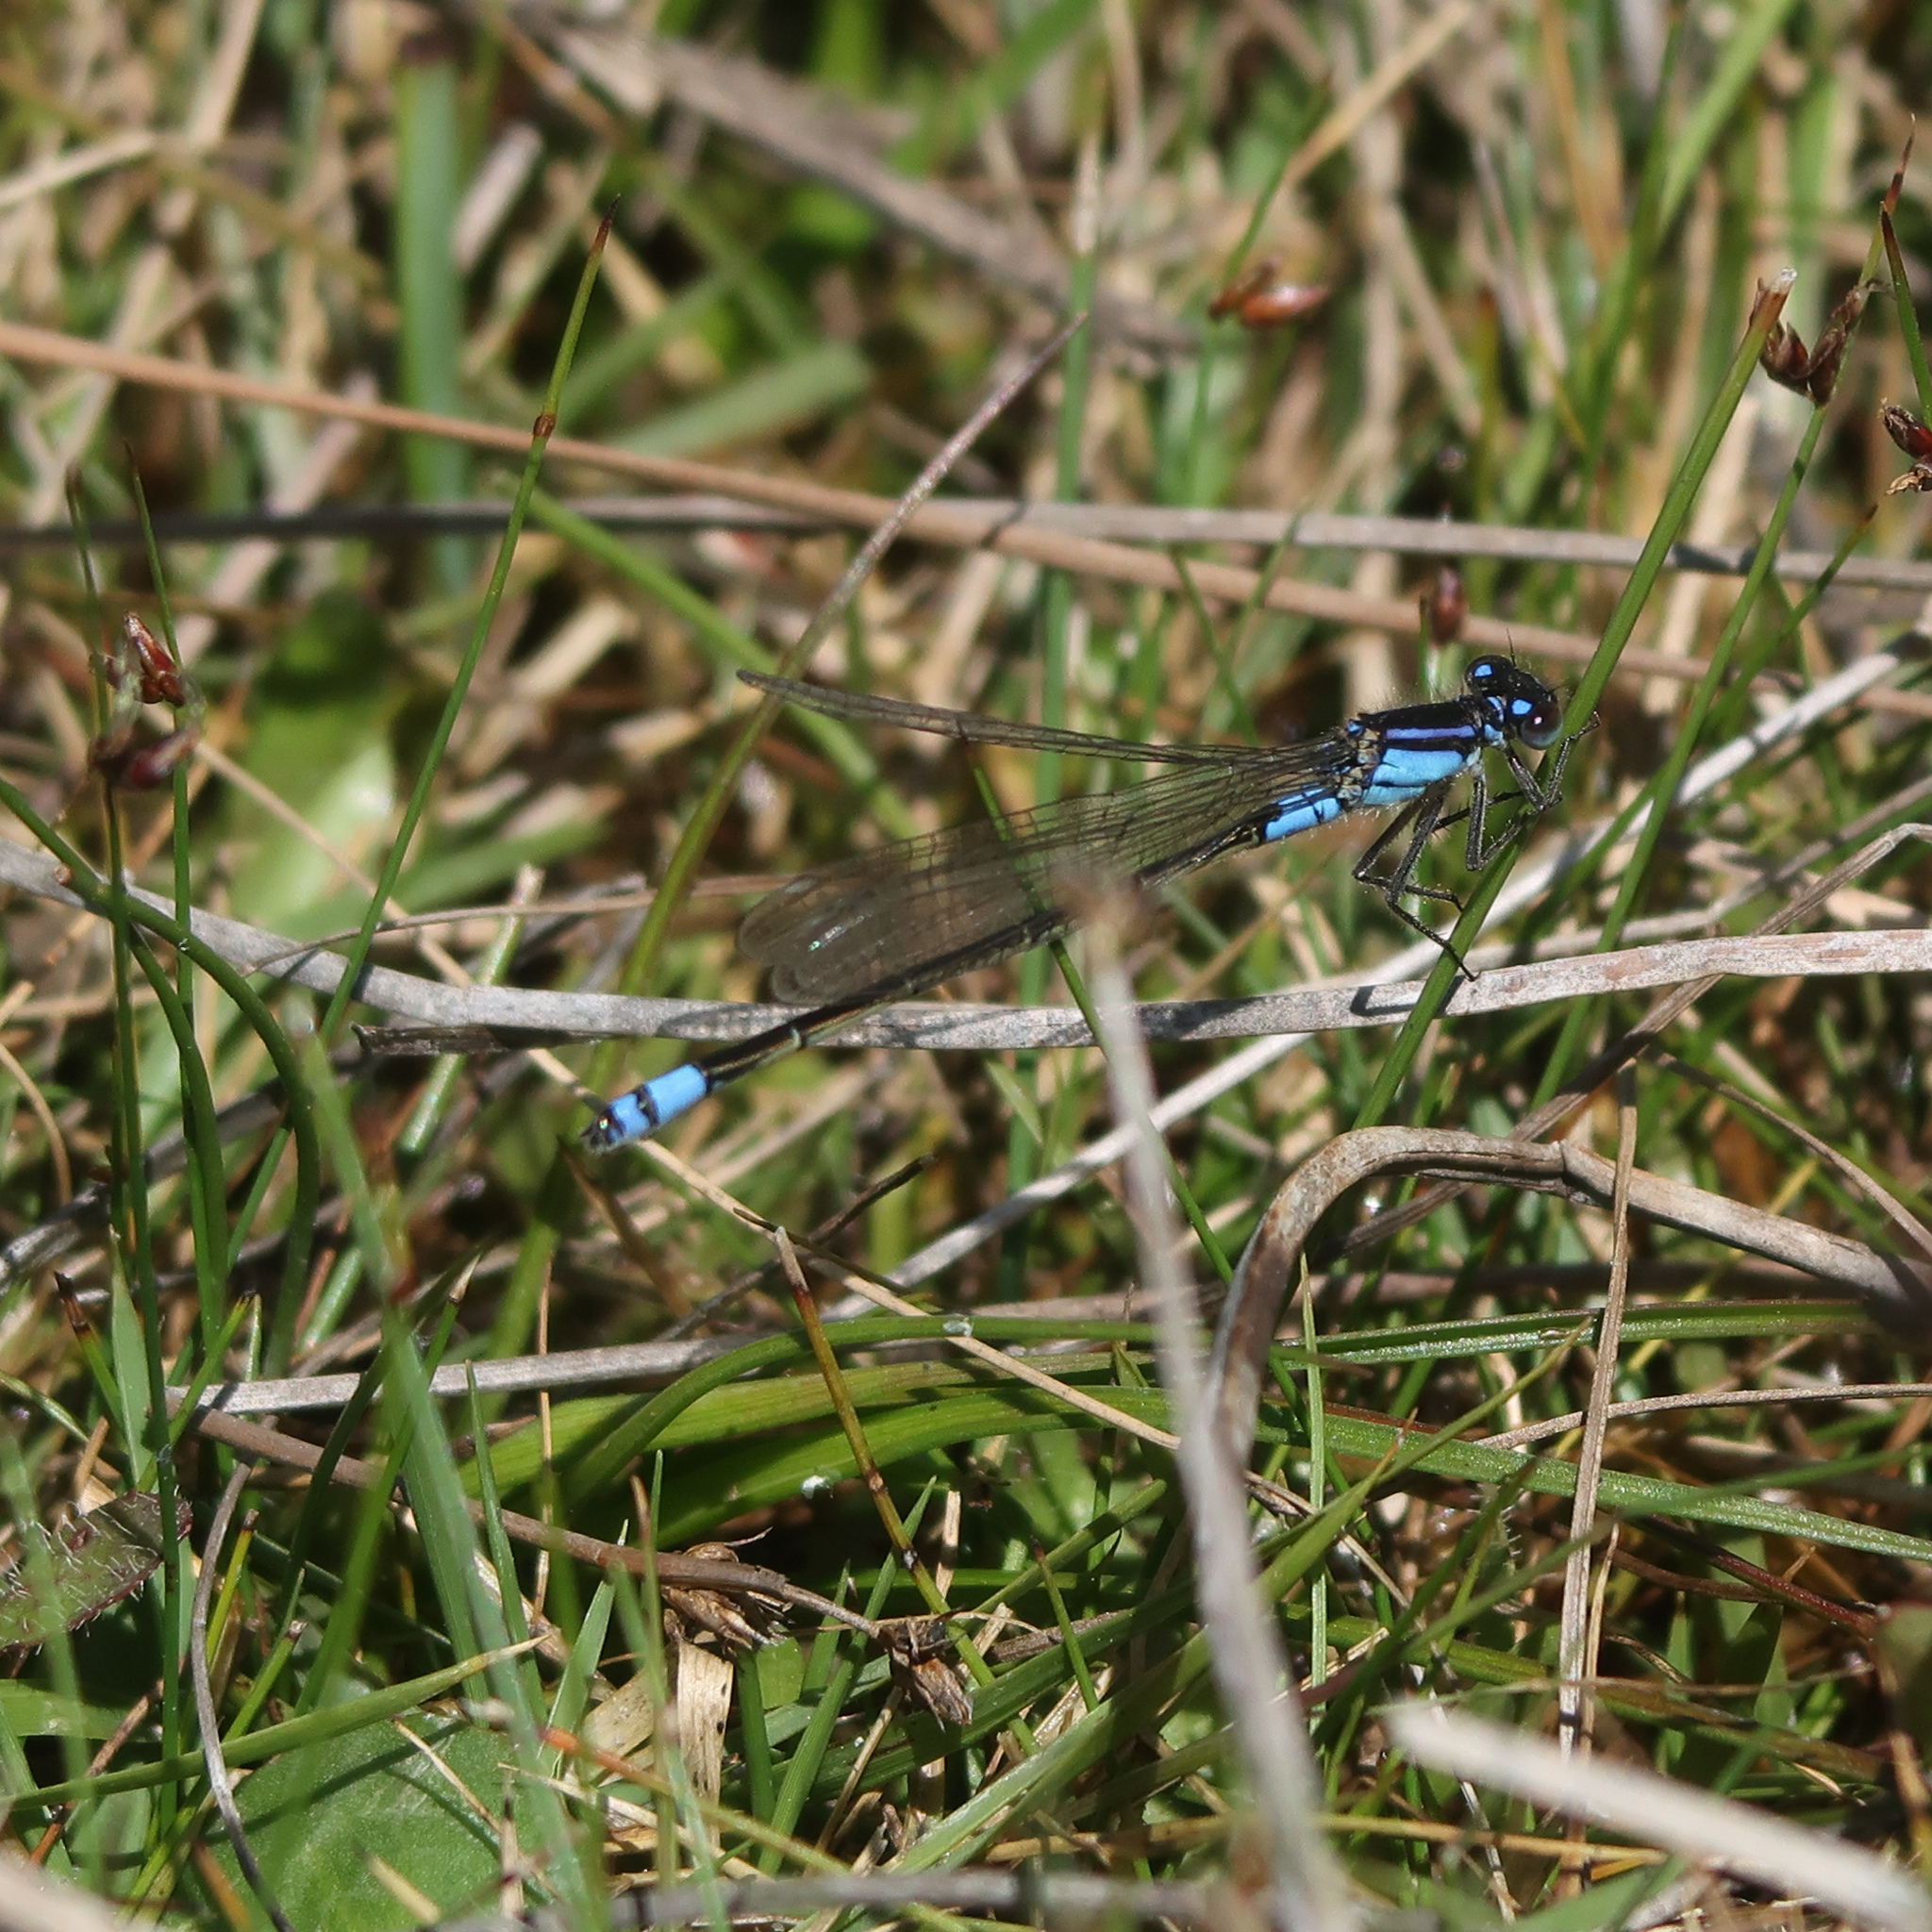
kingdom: Animalia
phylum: Arthropoda
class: Insecta
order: Odonata
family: Coenagrionidae
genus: Ischnura
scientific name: Ischnura heterosticta
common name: Common bluetail
